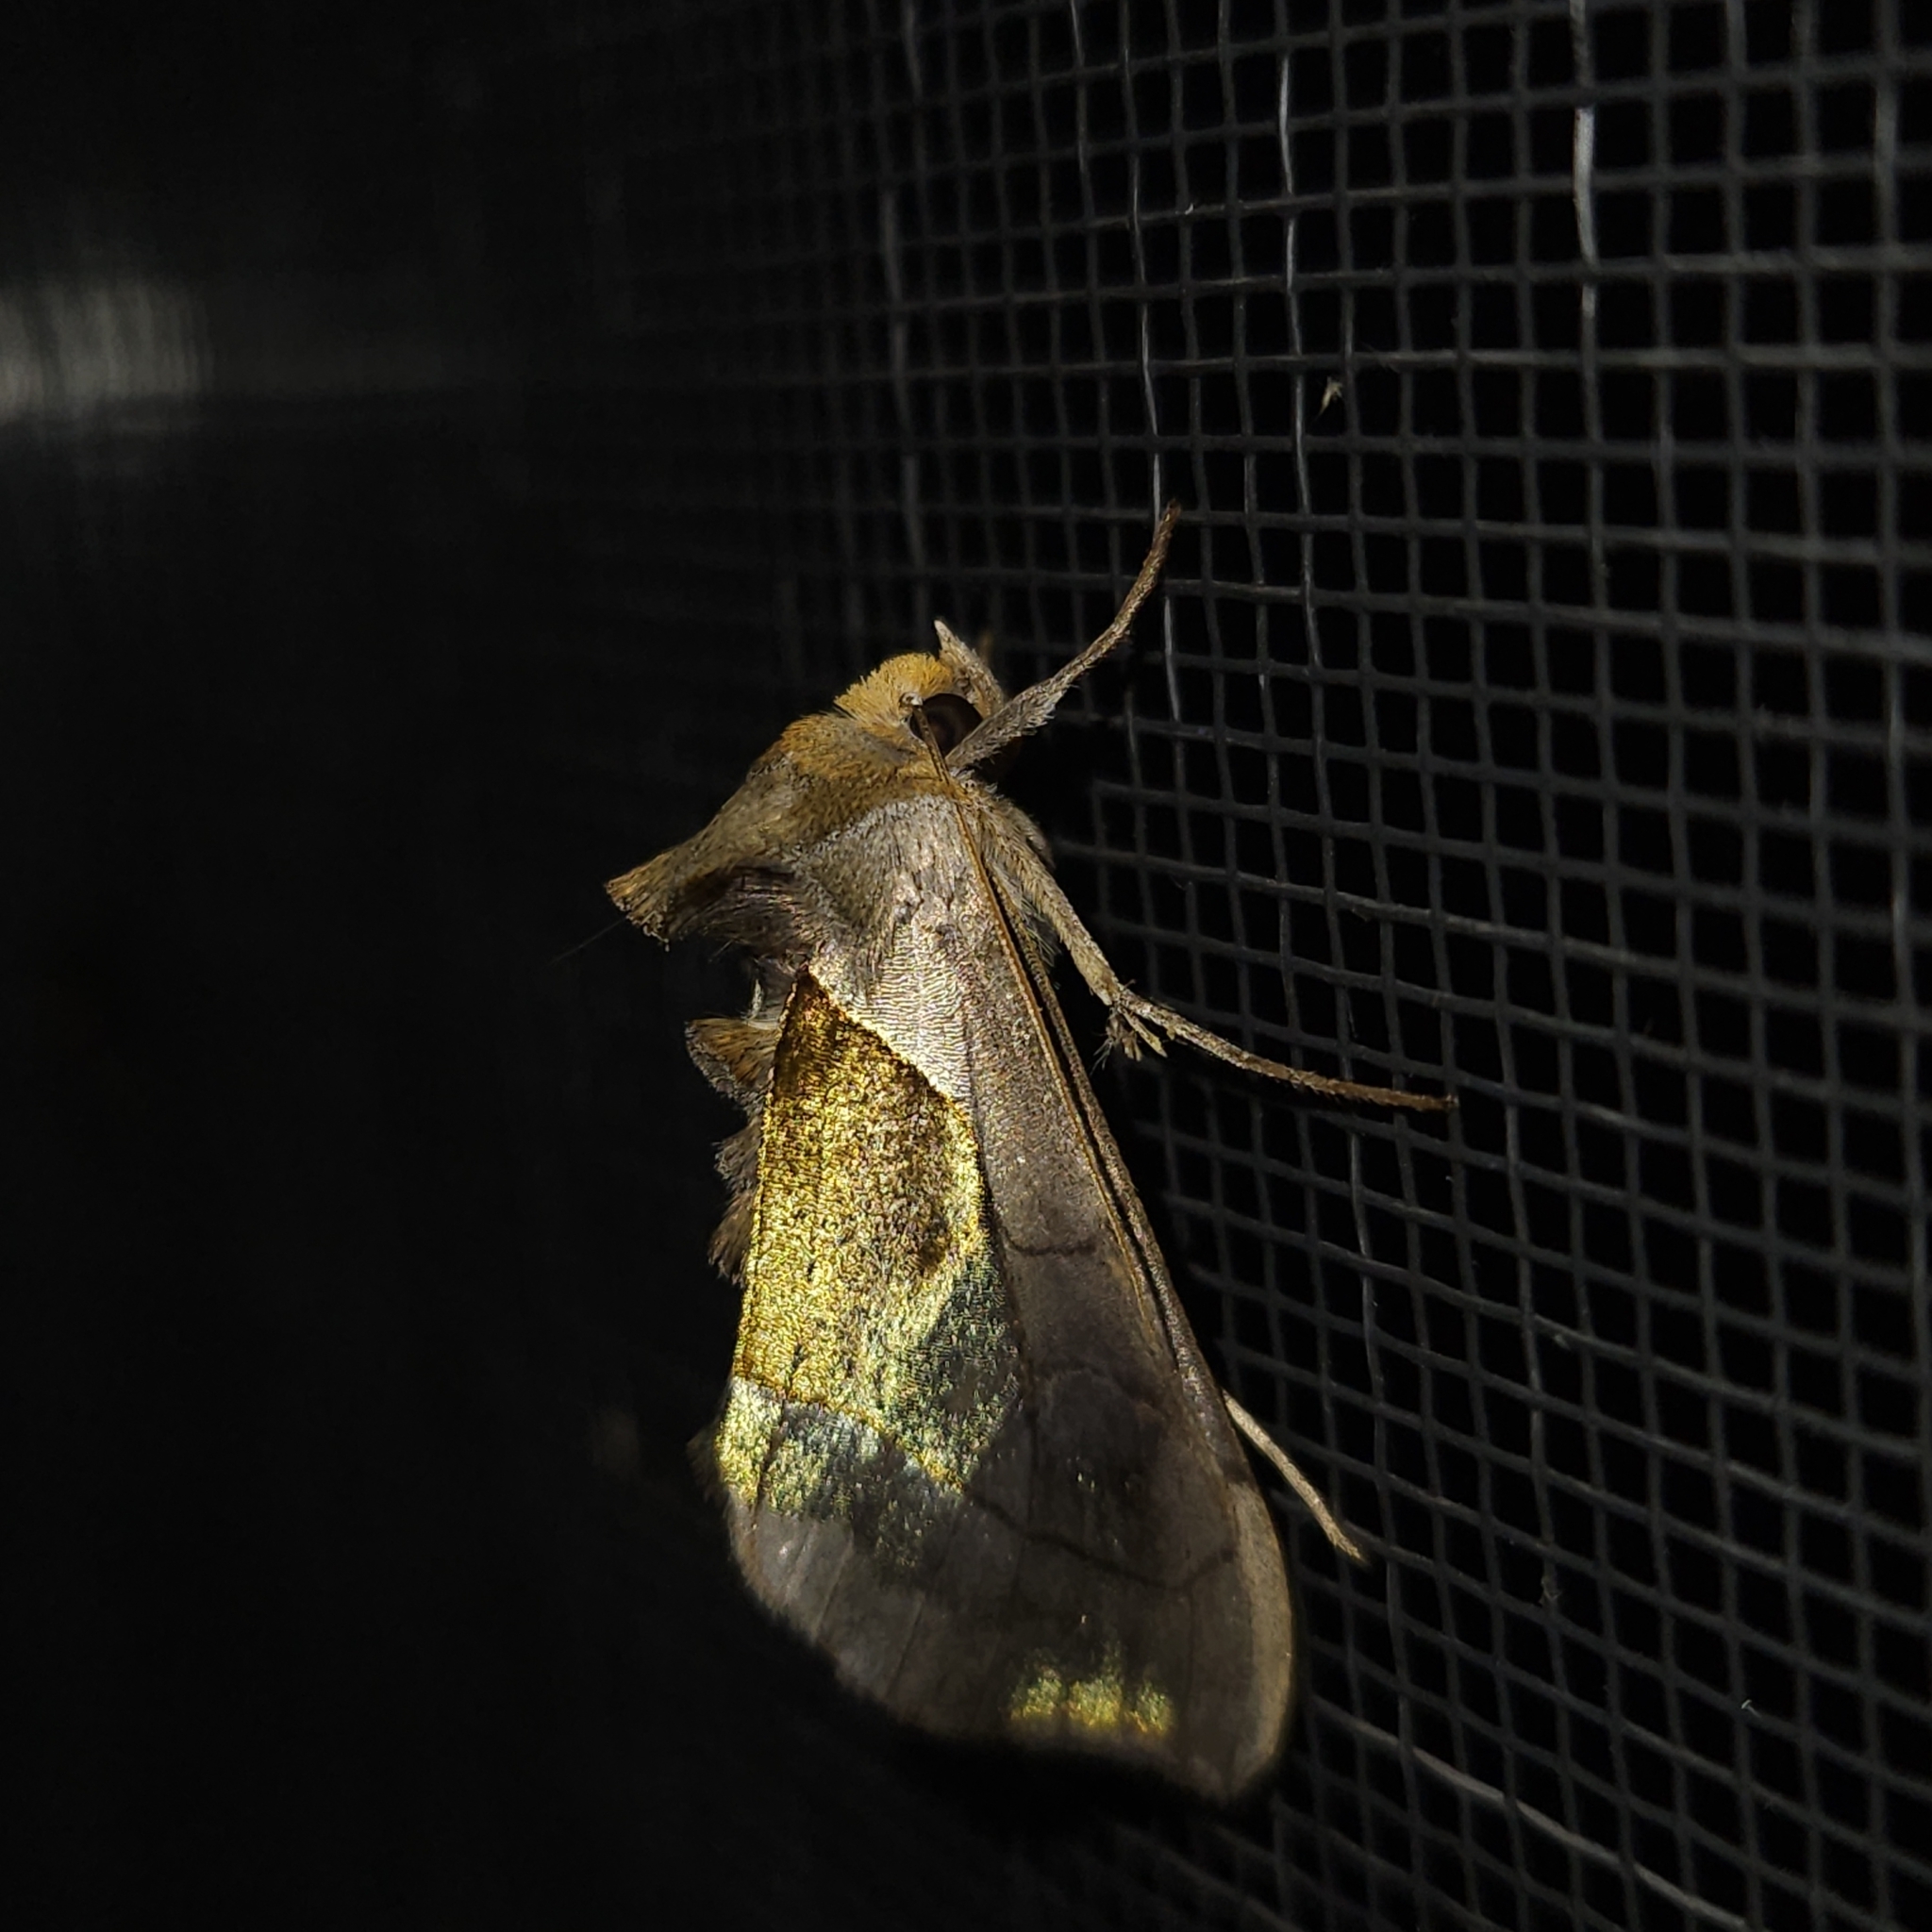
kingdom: Animalia
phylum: Arthropoda
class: Insecta
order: Lepidoptera
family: Noctuidae
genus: Diachrysia
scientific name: Diachrysia balluca
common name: Green-patched looper moth
